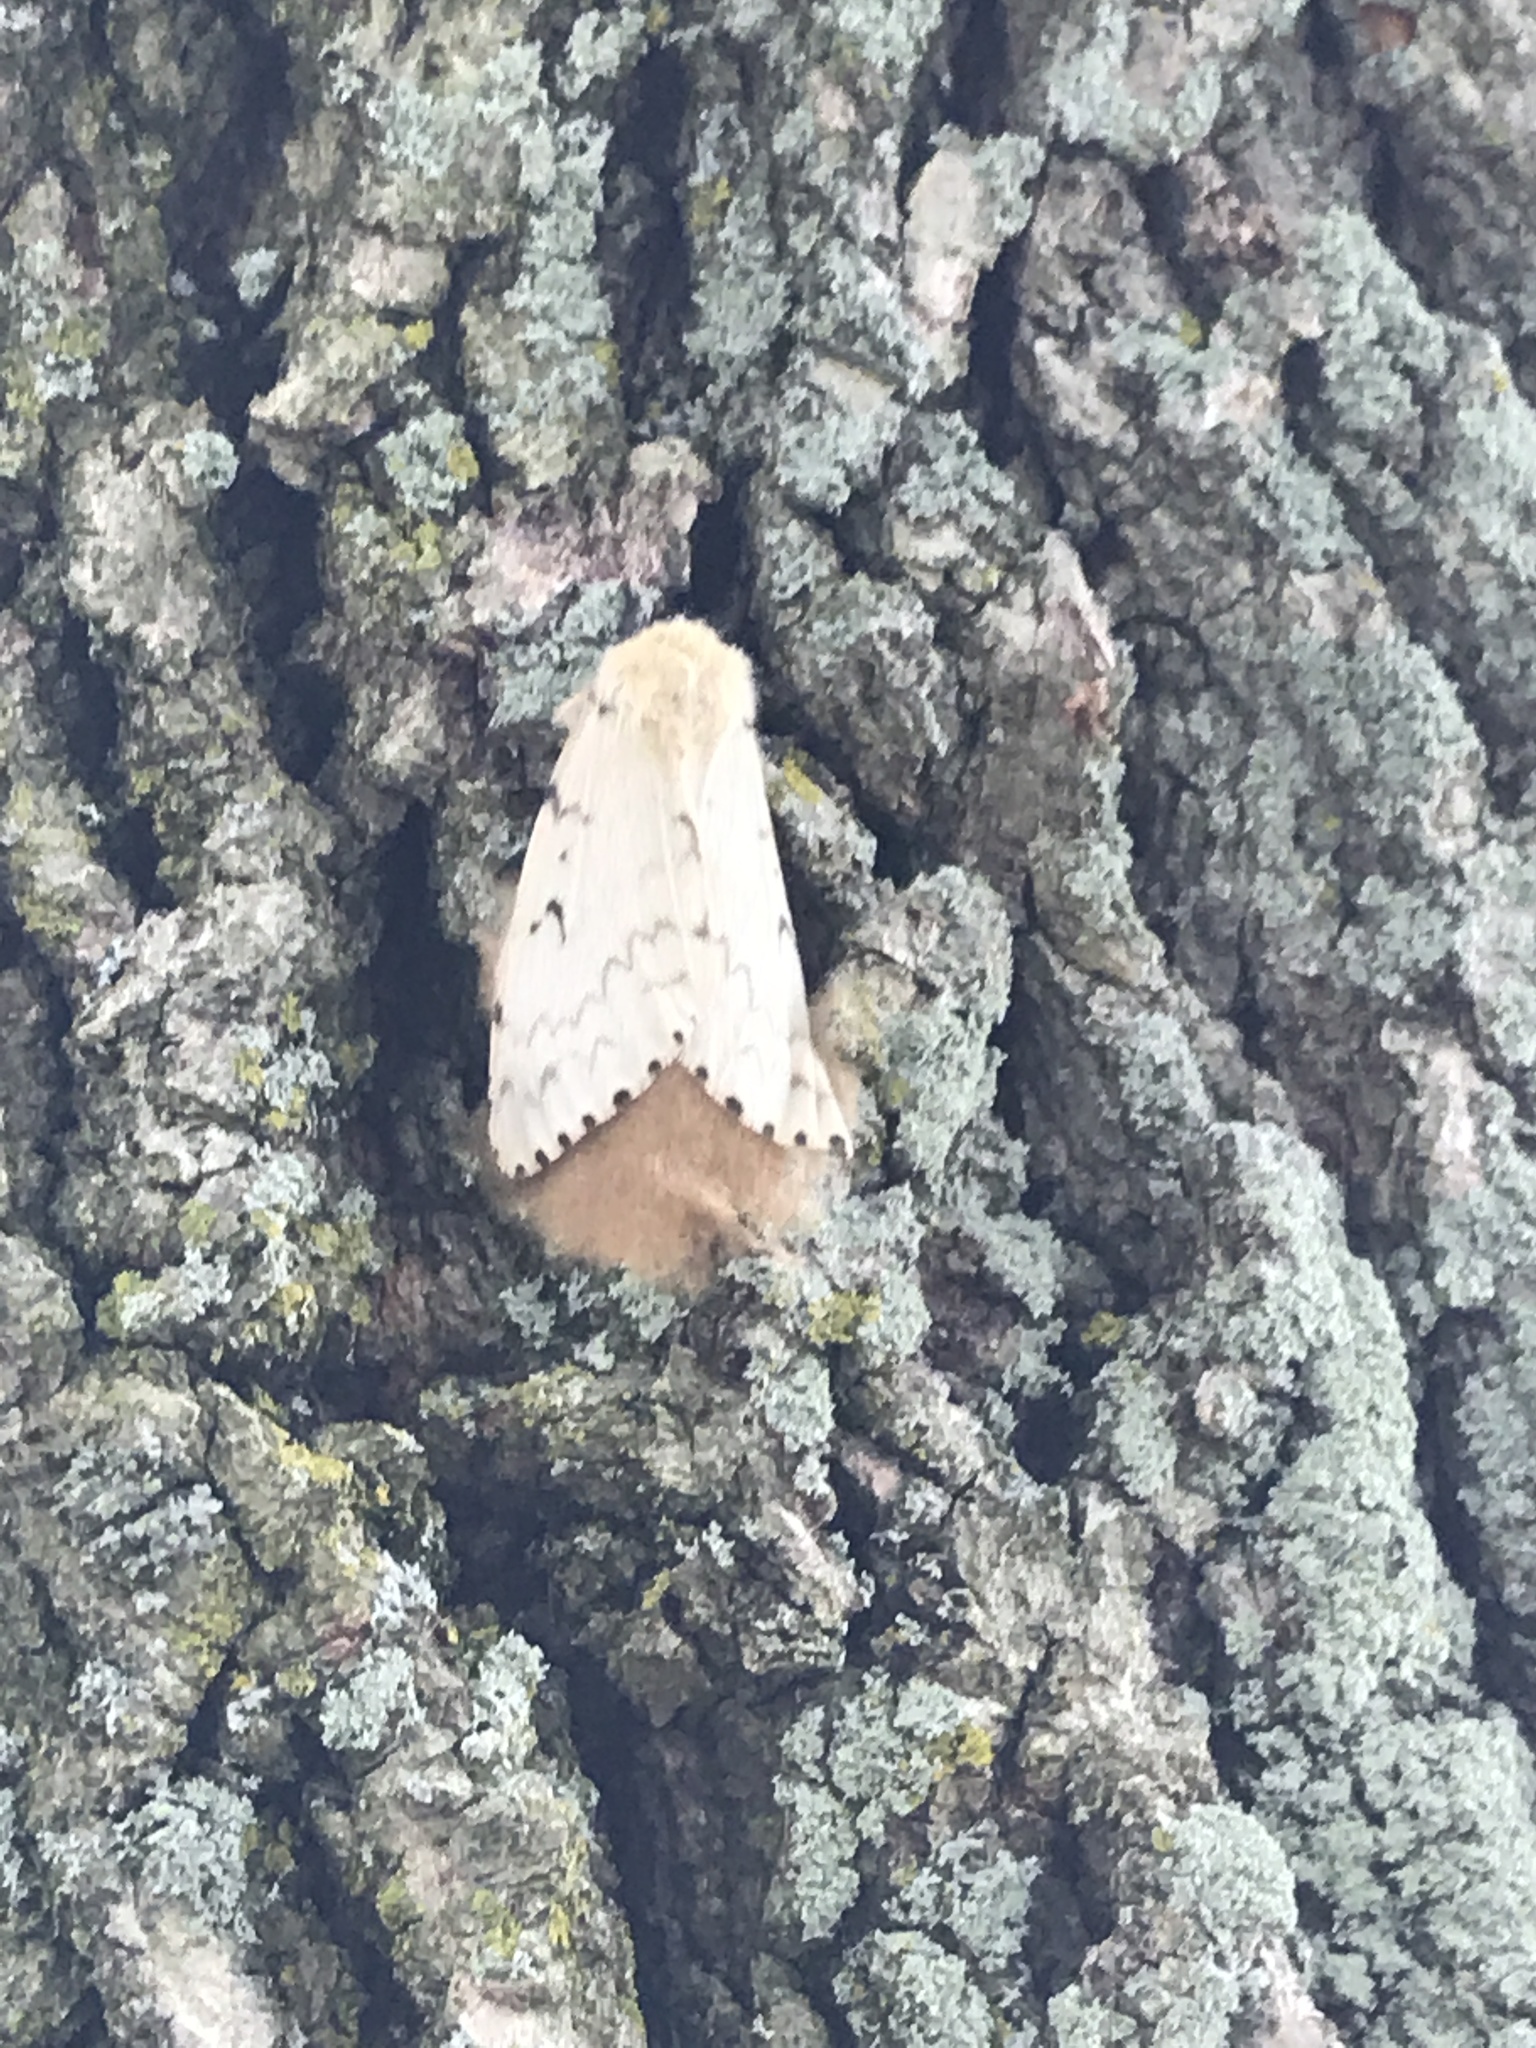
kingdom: Animalia
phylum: Arthropoda
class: Insecta
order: Lepidoptera
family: Erebidae
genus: Lymantria
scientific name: Lymantria dispar
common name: Gypsy moth
